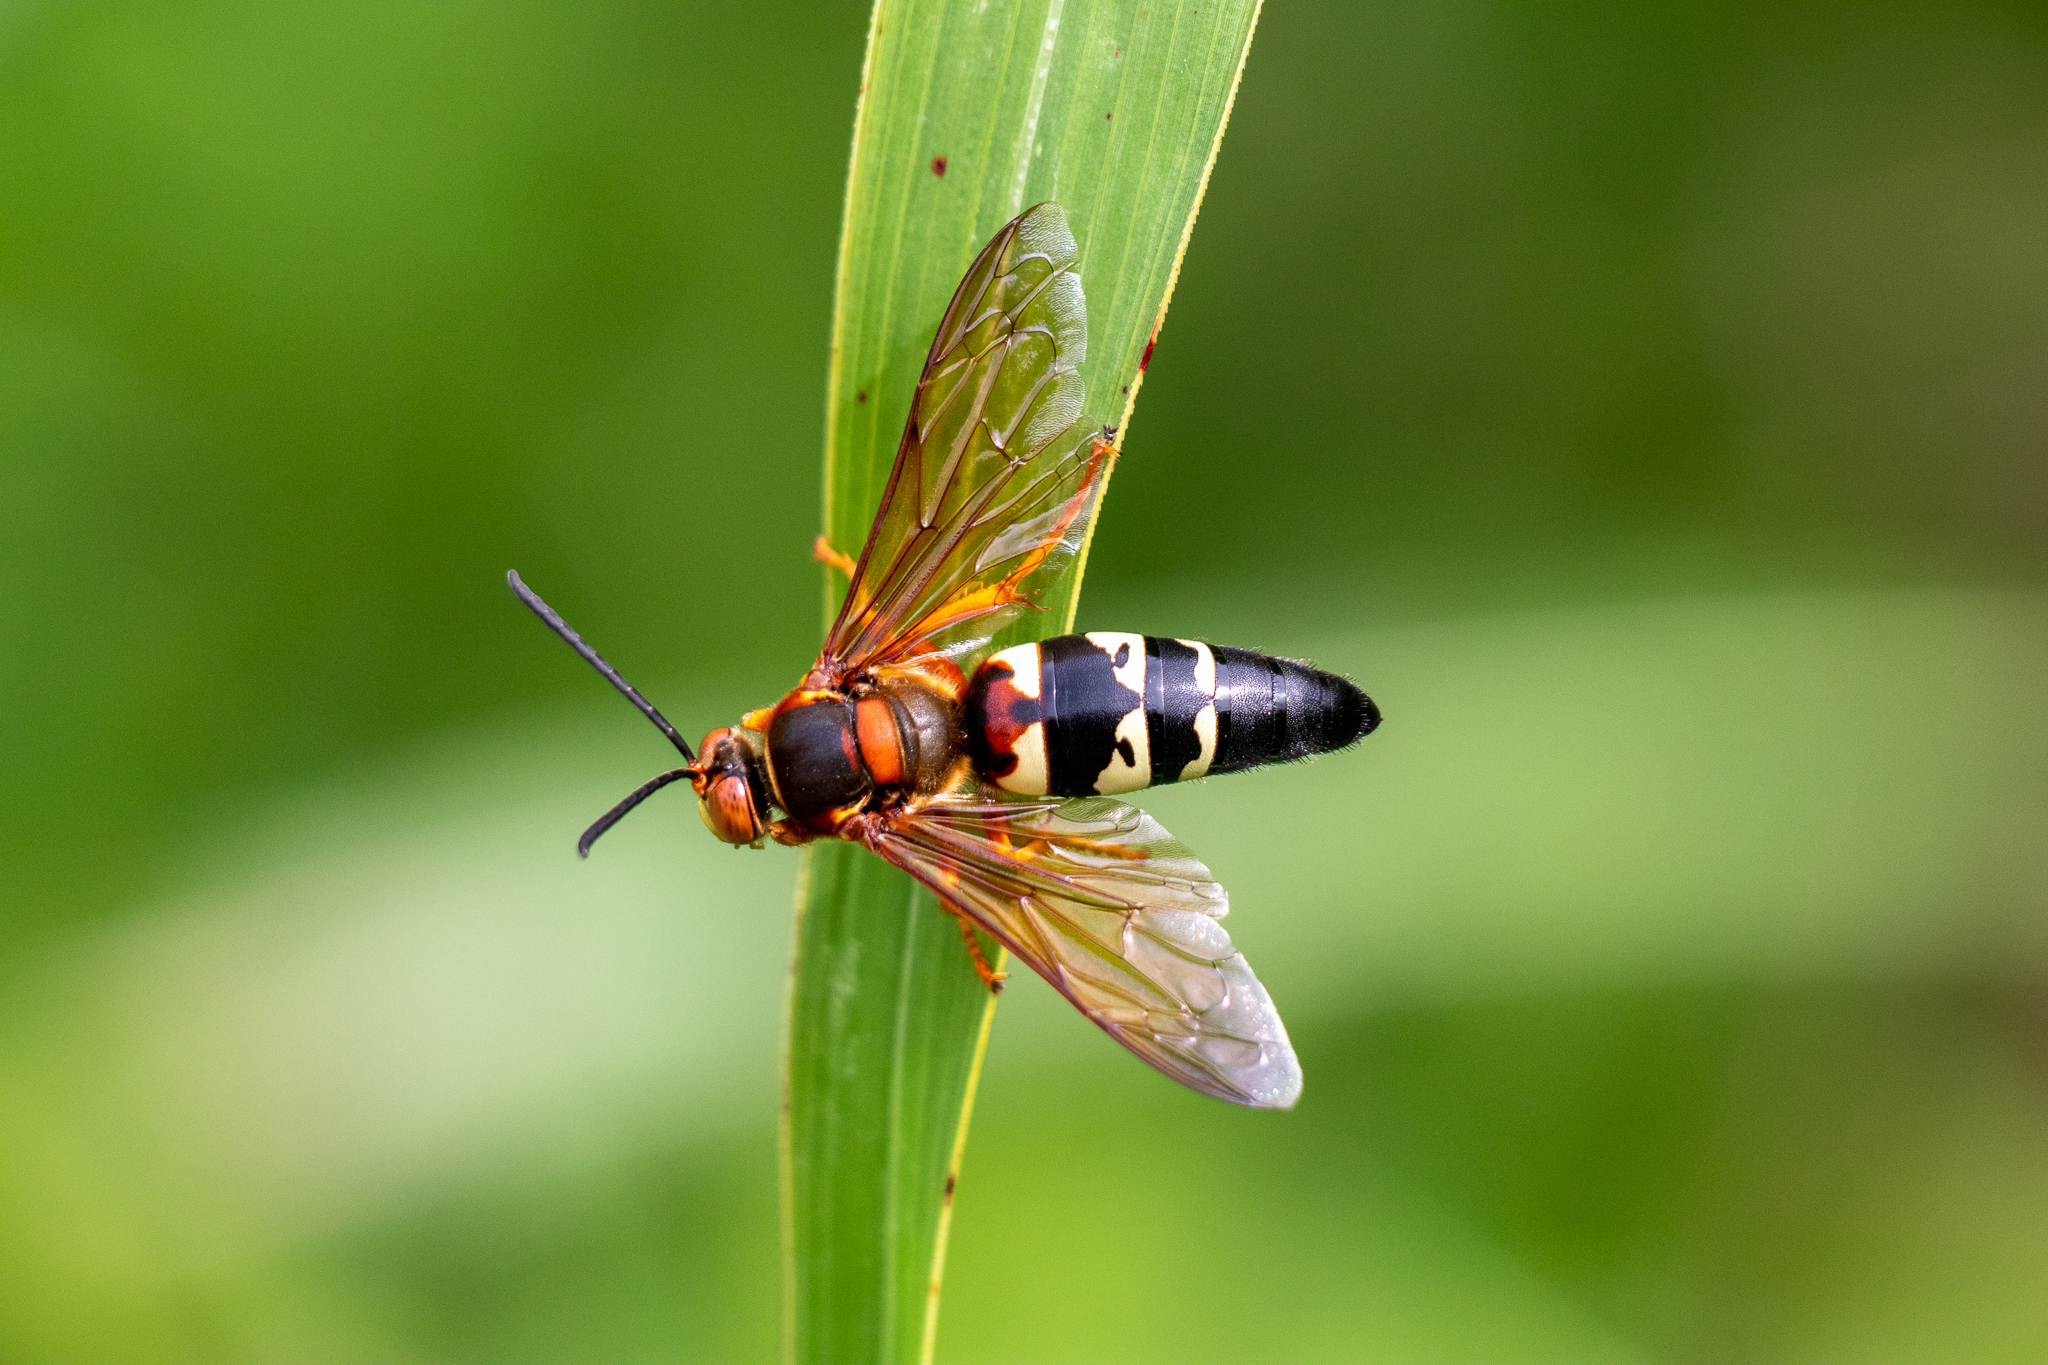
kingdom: Animalia
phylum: Arthropoda
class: Insecta
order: Hymenoptera
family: Crabronidae
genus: Sphecius
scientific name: Sphecius speciosus
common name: Cicada killer
